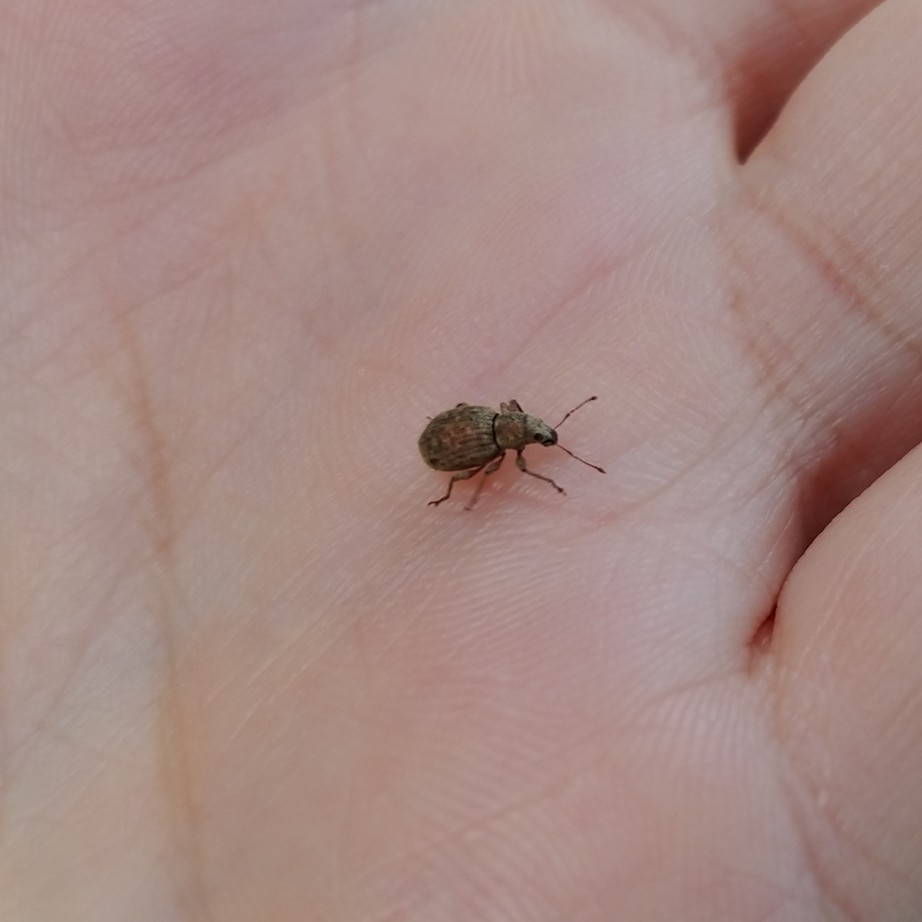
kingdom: Animalia
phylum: Arthropoda
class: Insecta
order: Coleoptera
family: Curculionidae
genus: Sciaphilus
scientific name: Sciaphilus asperatus
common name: Weevil
